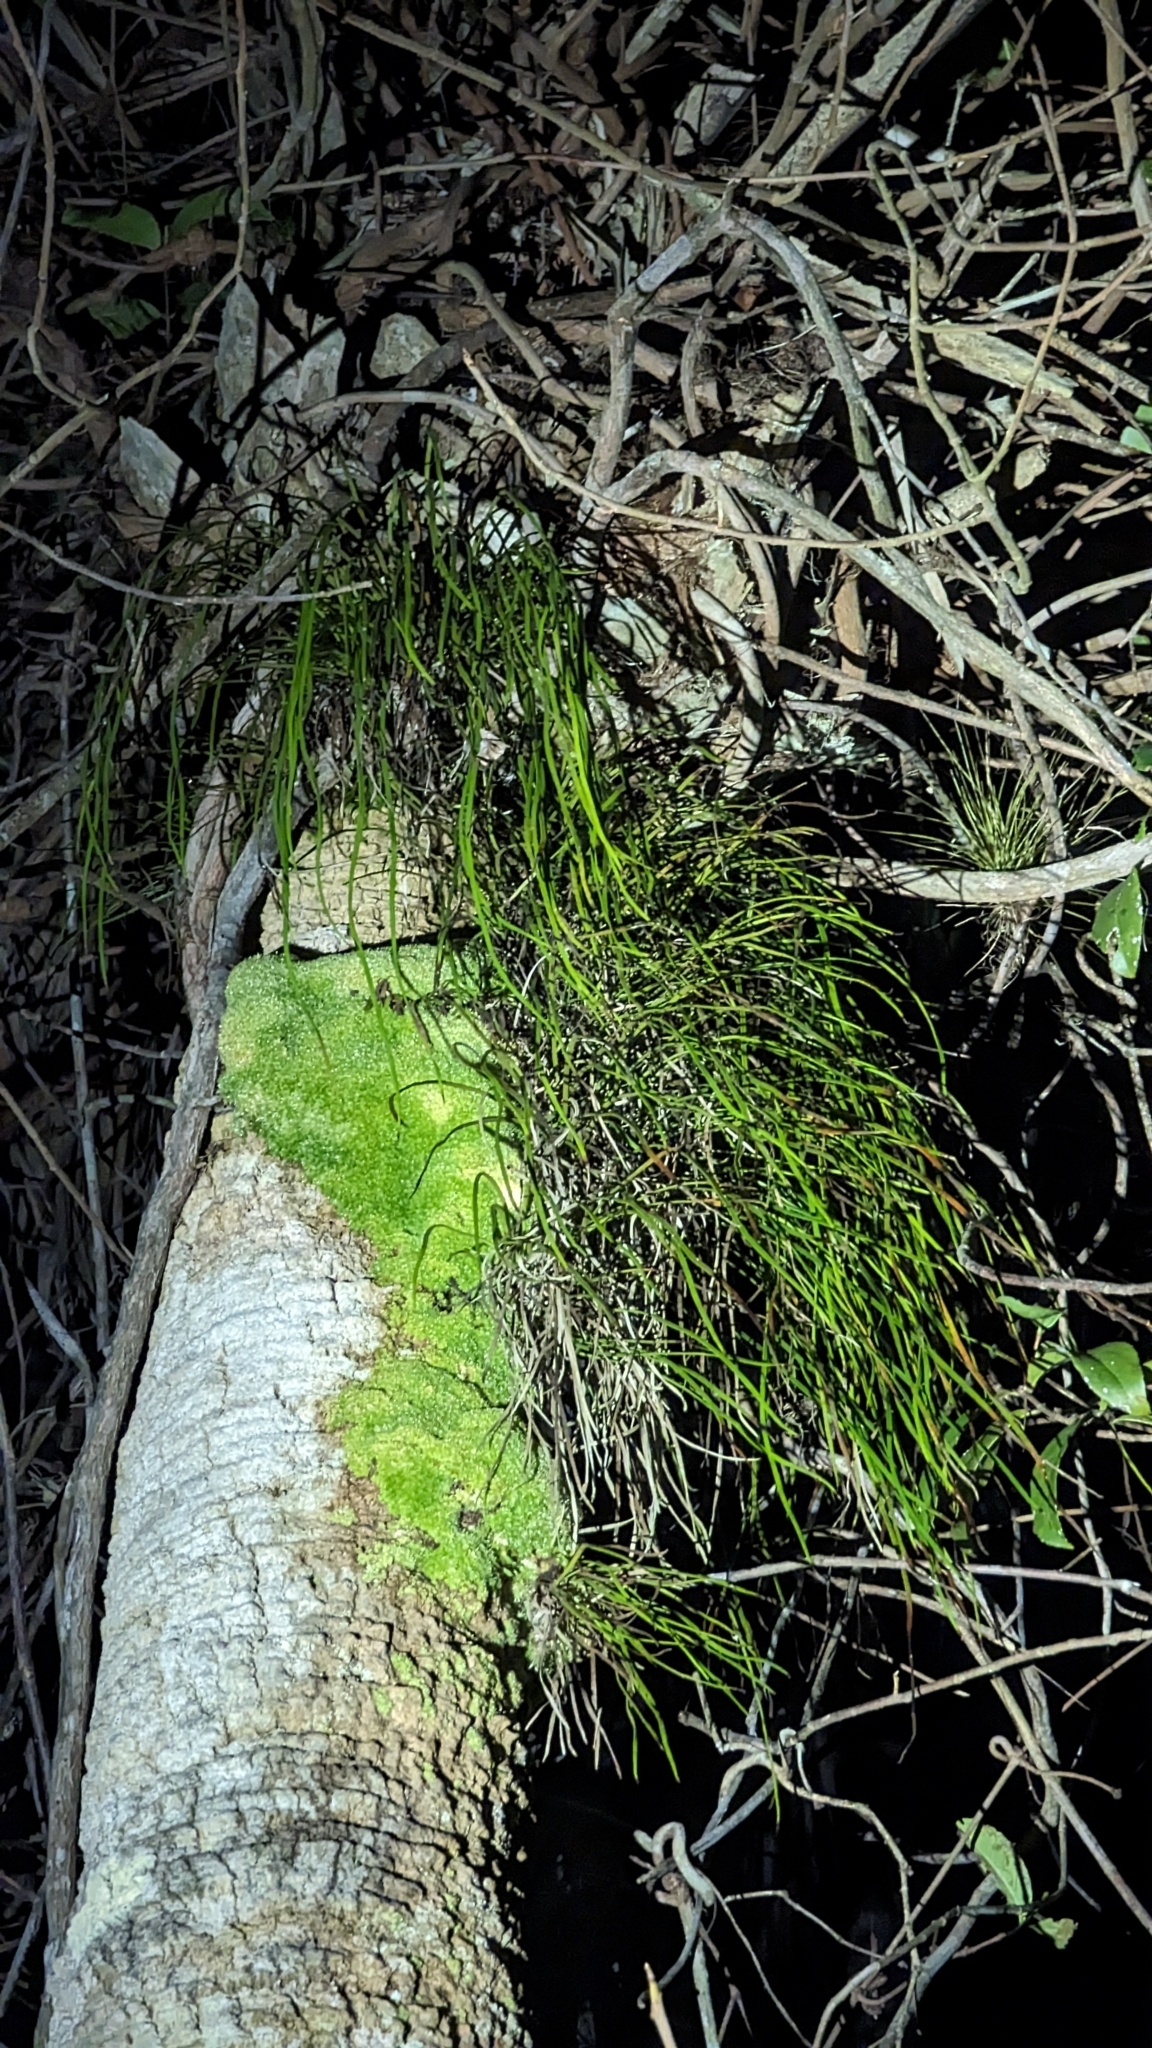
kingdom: Plantae
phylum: Tracheophyta
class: Liliopsida
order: Poales
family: Bromeliaceae
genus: Tillandsia
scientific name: Tillandsia setacea
